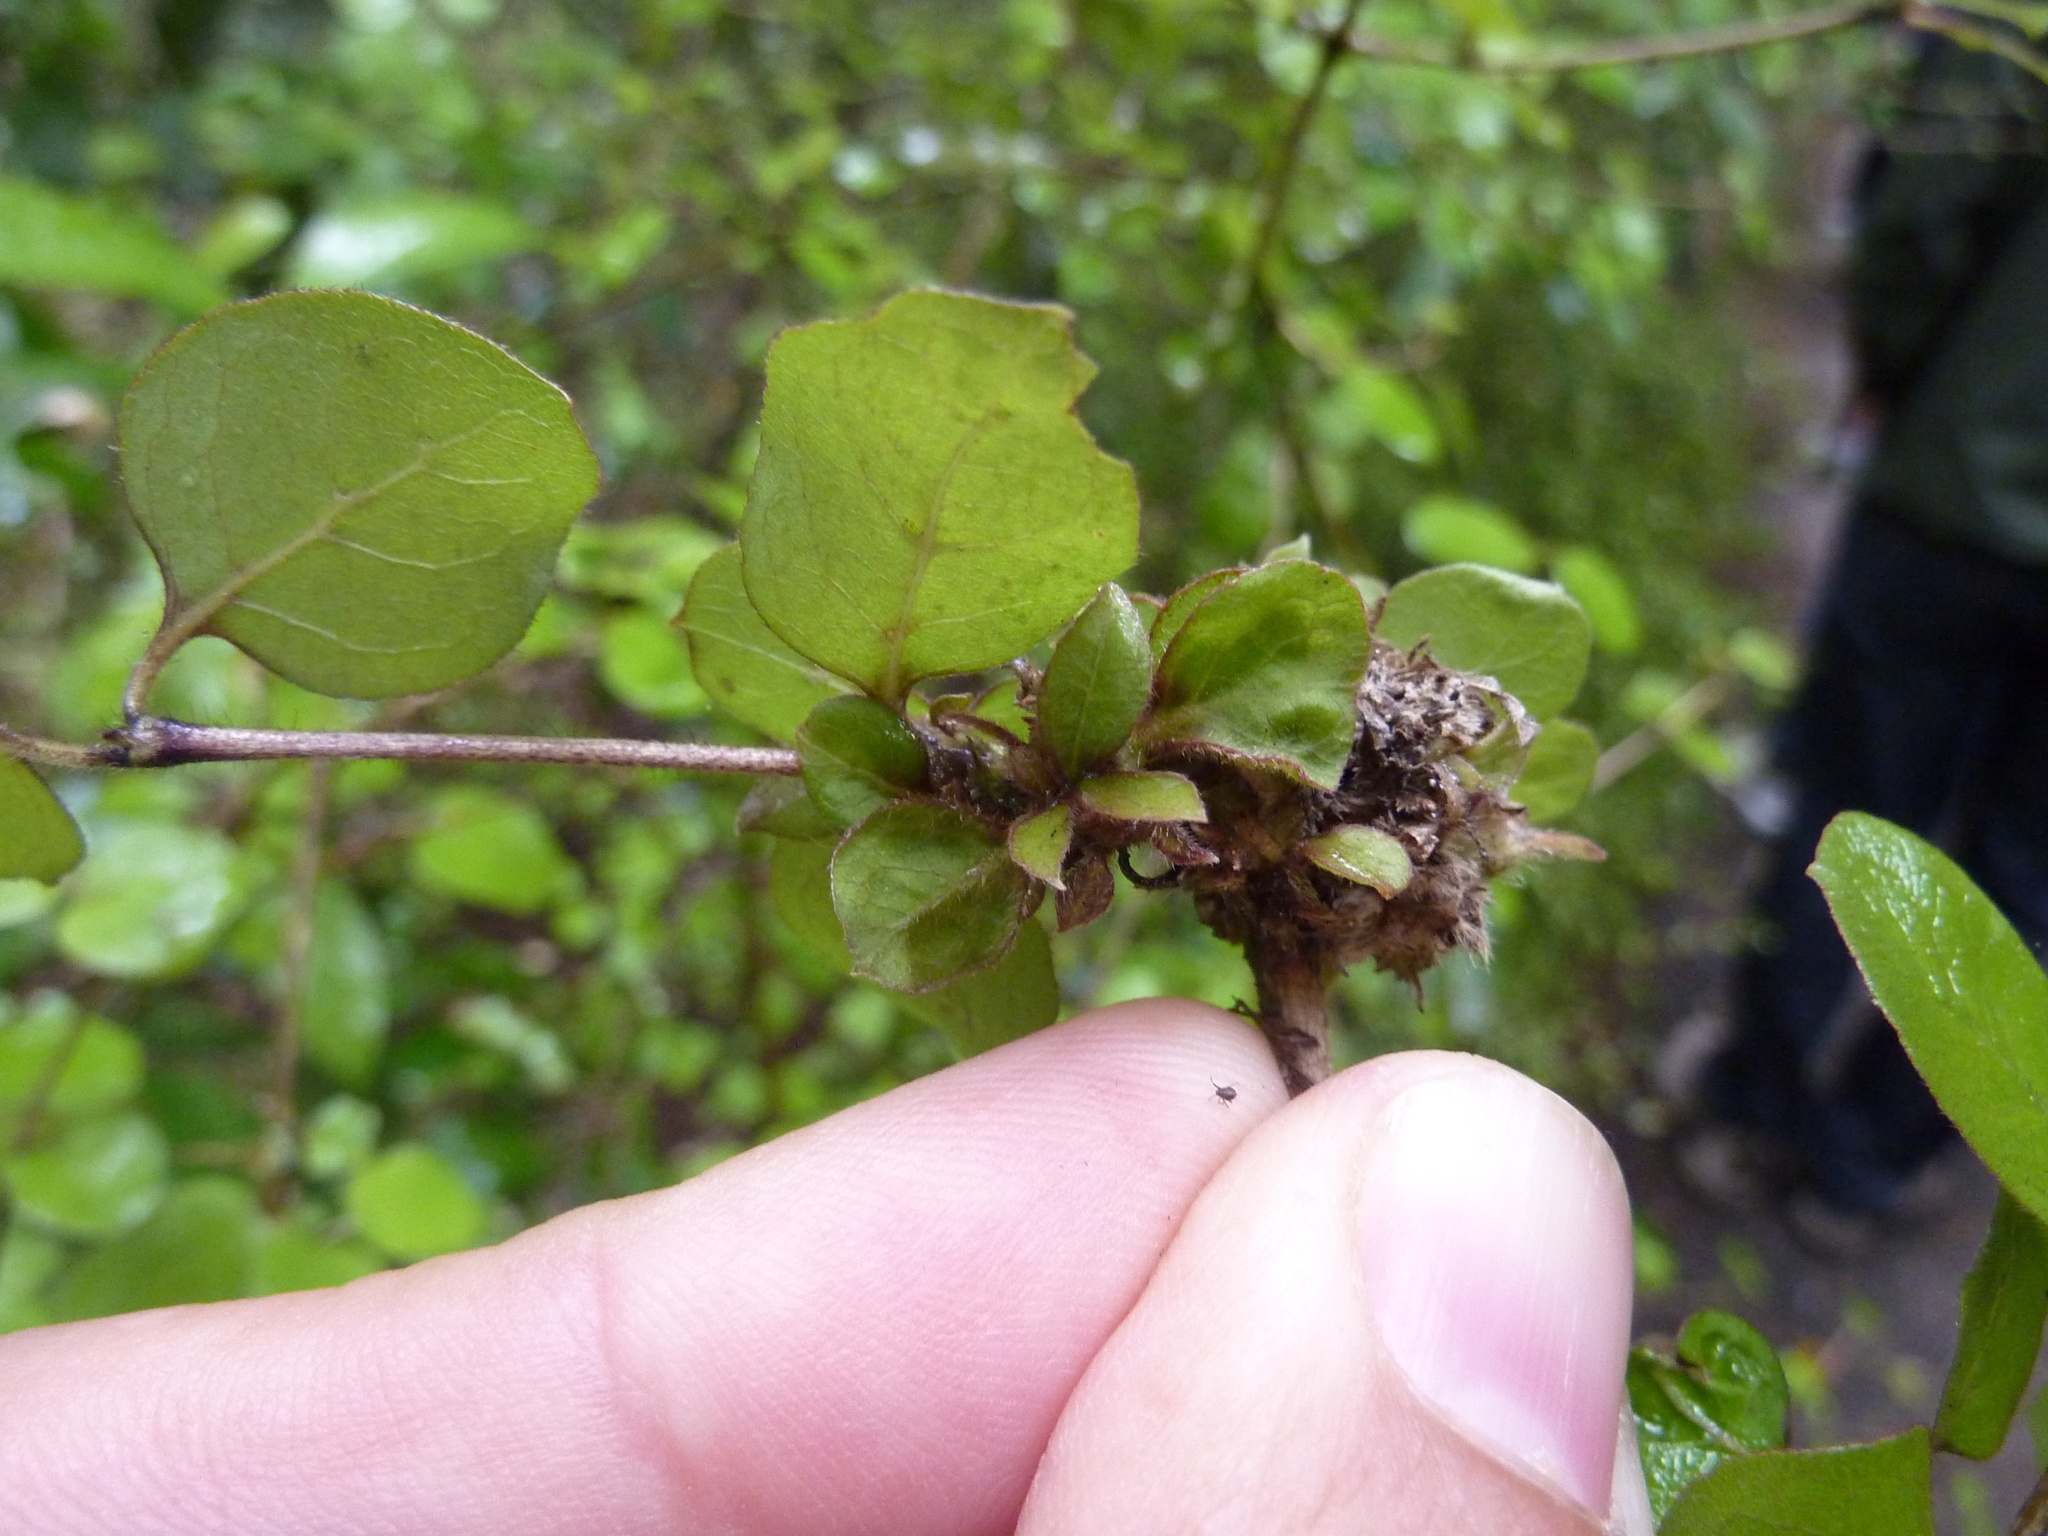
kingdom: Plantae
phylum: Tracheophyta
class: Magnoliopsida
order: Gentianales
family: Rubiaceae
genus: Coprosma
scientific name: Coprosma rotundifolia
